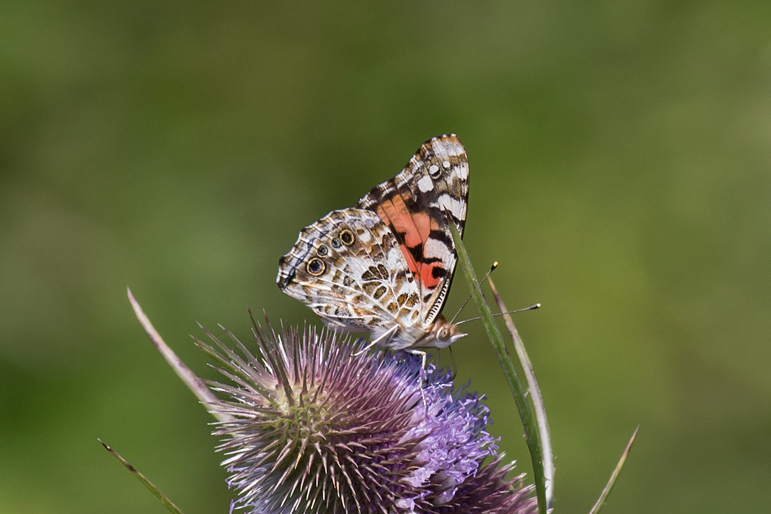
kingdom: Animalia
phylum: Arthropoda
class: Insecta
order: Lepidoptera
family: Nymphalidae
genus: Vanessa
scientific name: Vanessa cardui
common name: Painted lady
